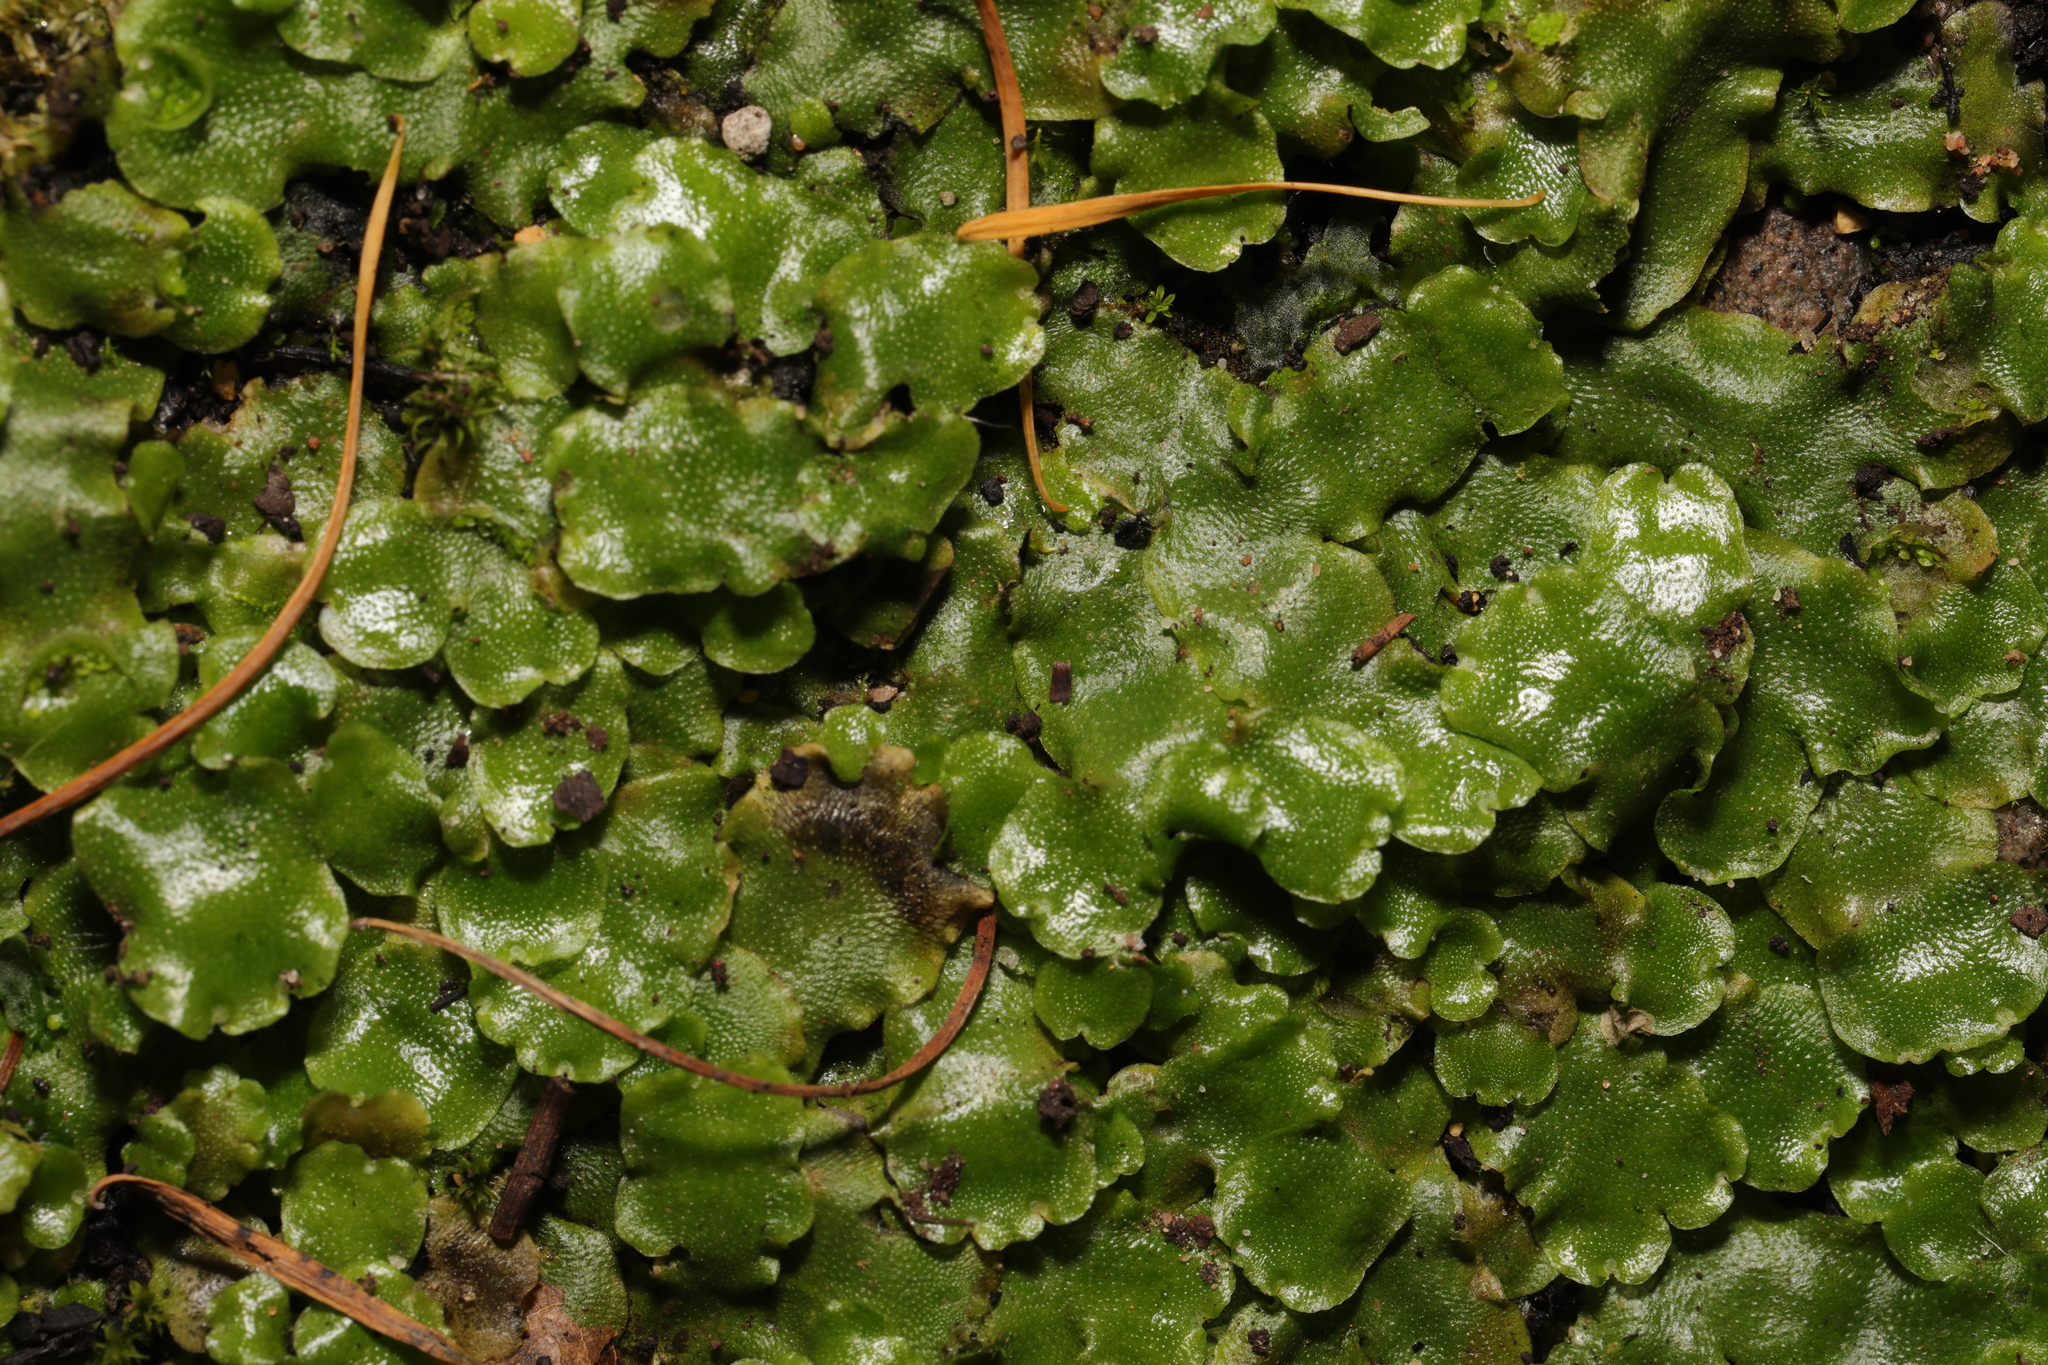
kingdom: Plantae
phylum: Marchantiophyta
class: Marchantiopsida
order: Lunulariales
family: Lunulariaceae
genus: Lunularia
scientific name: Lunularia cruciata
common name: Crescent-cup liverwort
